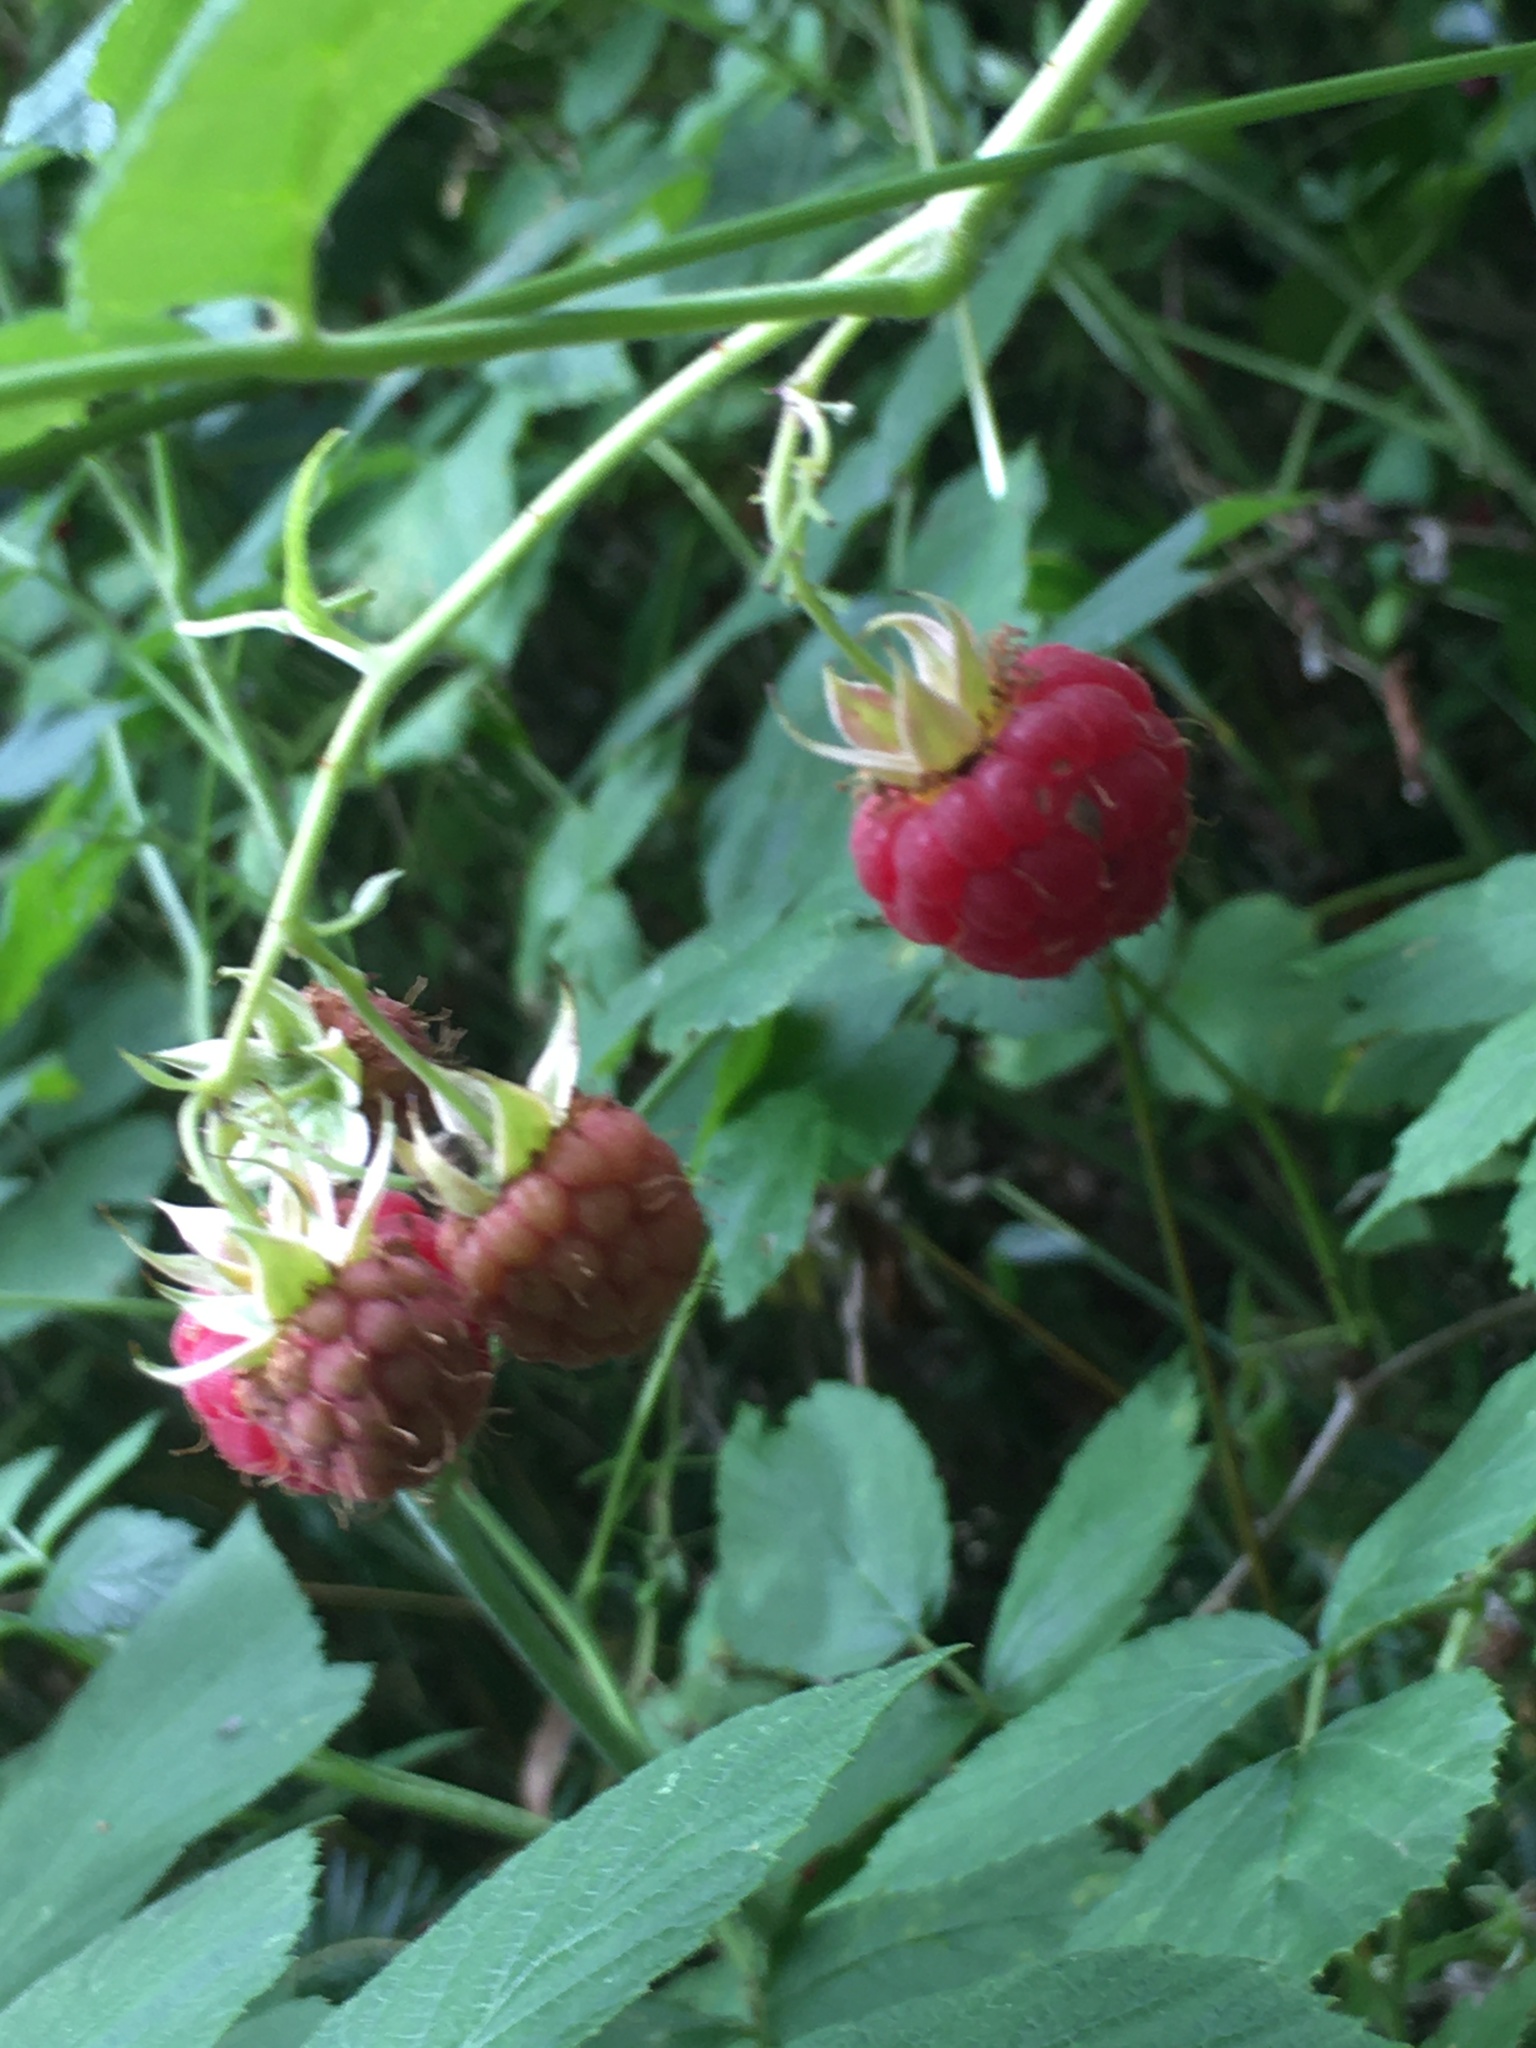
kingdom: Plantae
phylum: Tracheophyta
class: Magnoliopsida
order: Rosales
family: Rosaceae
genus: Rubus
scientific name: Rubus idaeus
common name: Raspberry
